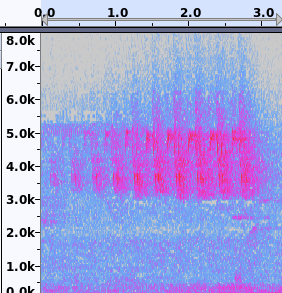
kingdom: Animalia
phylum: Chordata
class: Aves
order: Passeriformes
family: Parulidae
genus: Seiurus
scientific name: Seiurus aurocapilla
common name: Ovenbird
